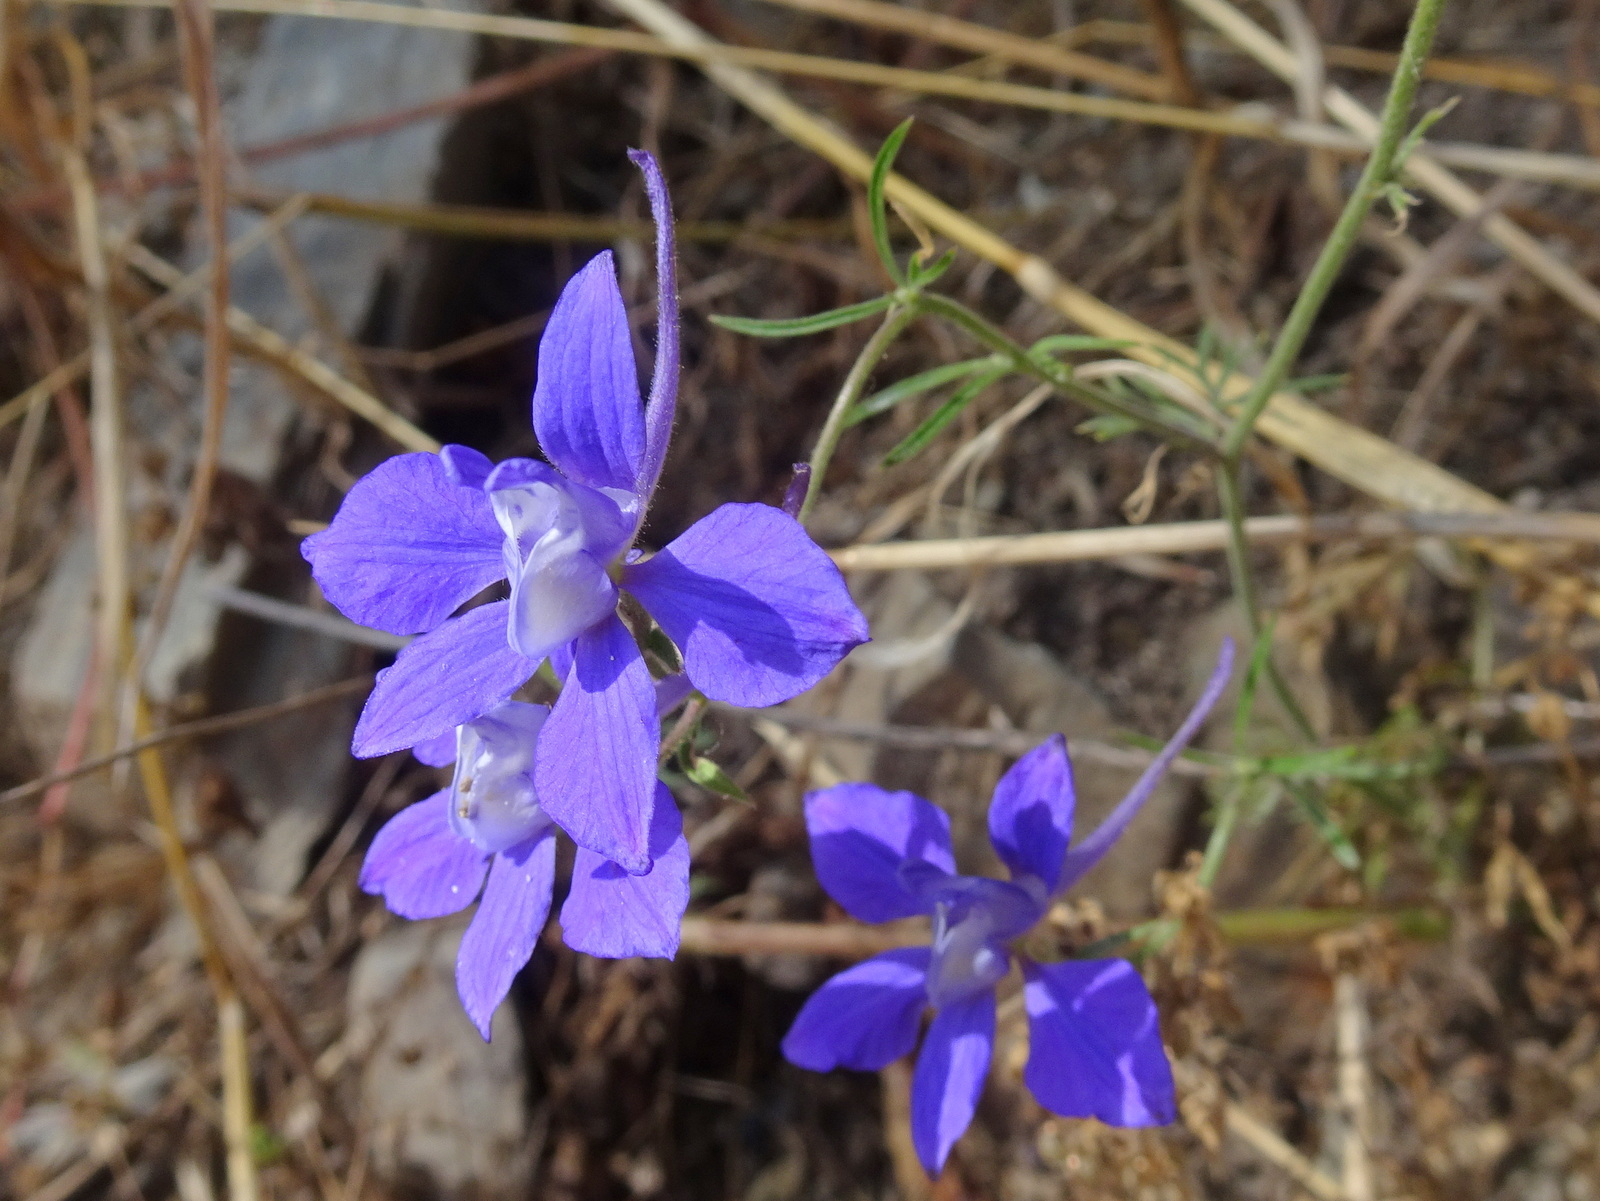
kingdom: Plantae
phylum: Tracheophyta
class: Magnoliopsida
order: Ranunculales
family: Ranunculaceae
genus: Delphinium
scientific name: Delphinium ajacis
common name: Doubtful knight's-spur
